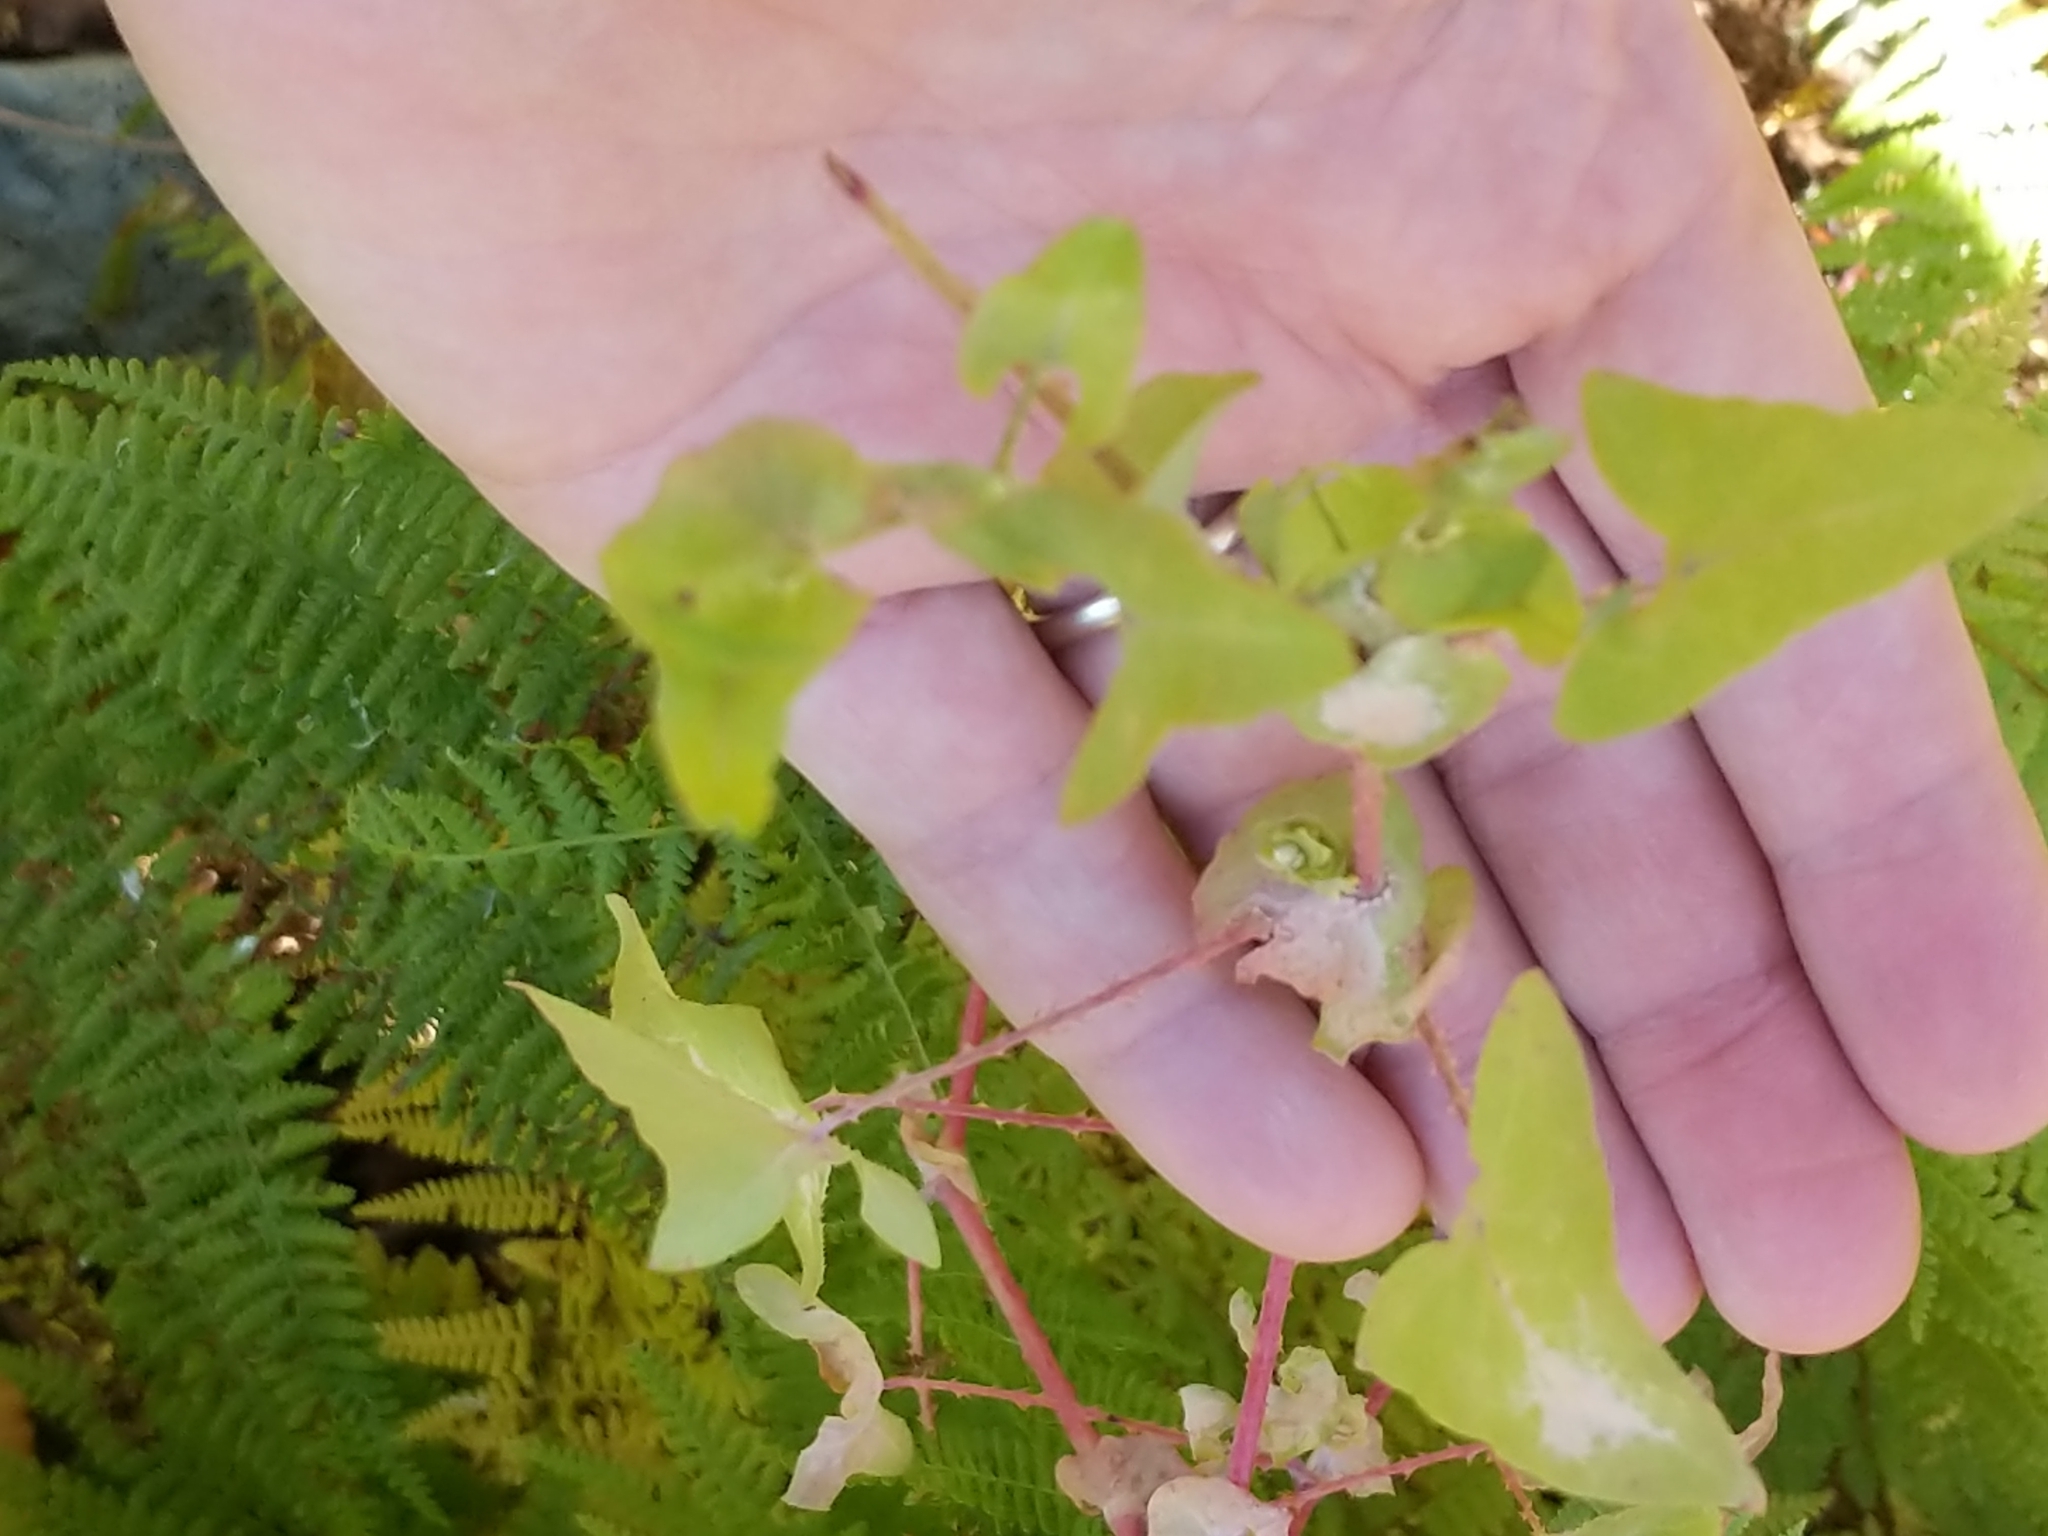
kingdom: Plantae
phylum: Tracheophyta
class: Magnoliopsida
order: Caryophyllales
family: Polygonaceae
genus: Persicaria
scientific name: Persicaria perfoliata
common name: Asiatic tearthumb
